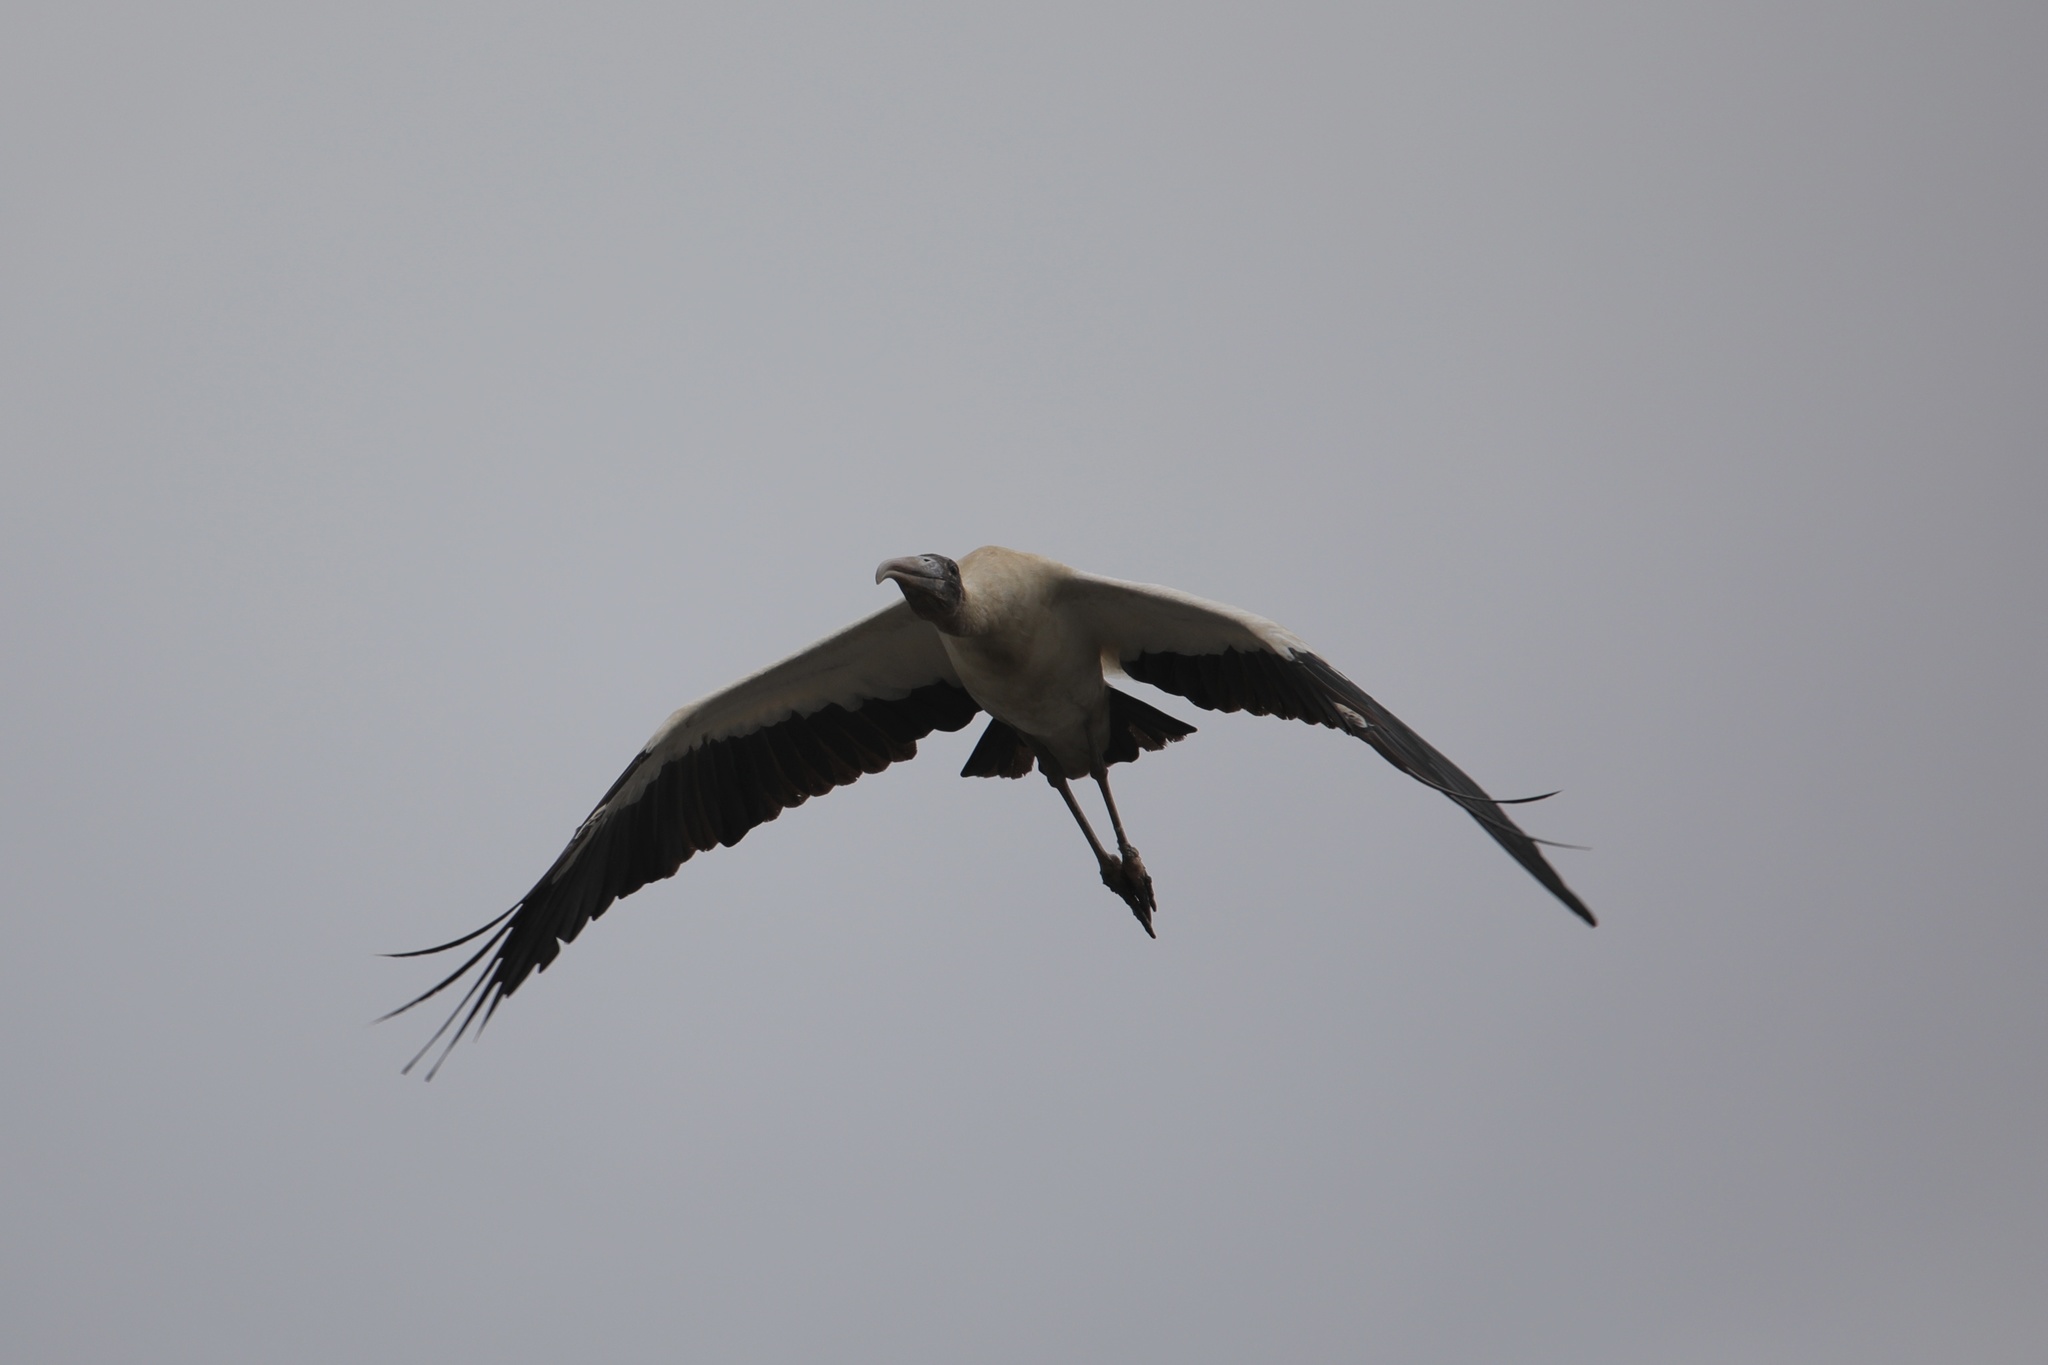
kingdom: Animalia
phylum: Chordata
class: Aves
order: Ciconiiformes
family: Ciconiidae
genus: Mycteria
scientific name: Mycteria americana
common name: Wood stork
